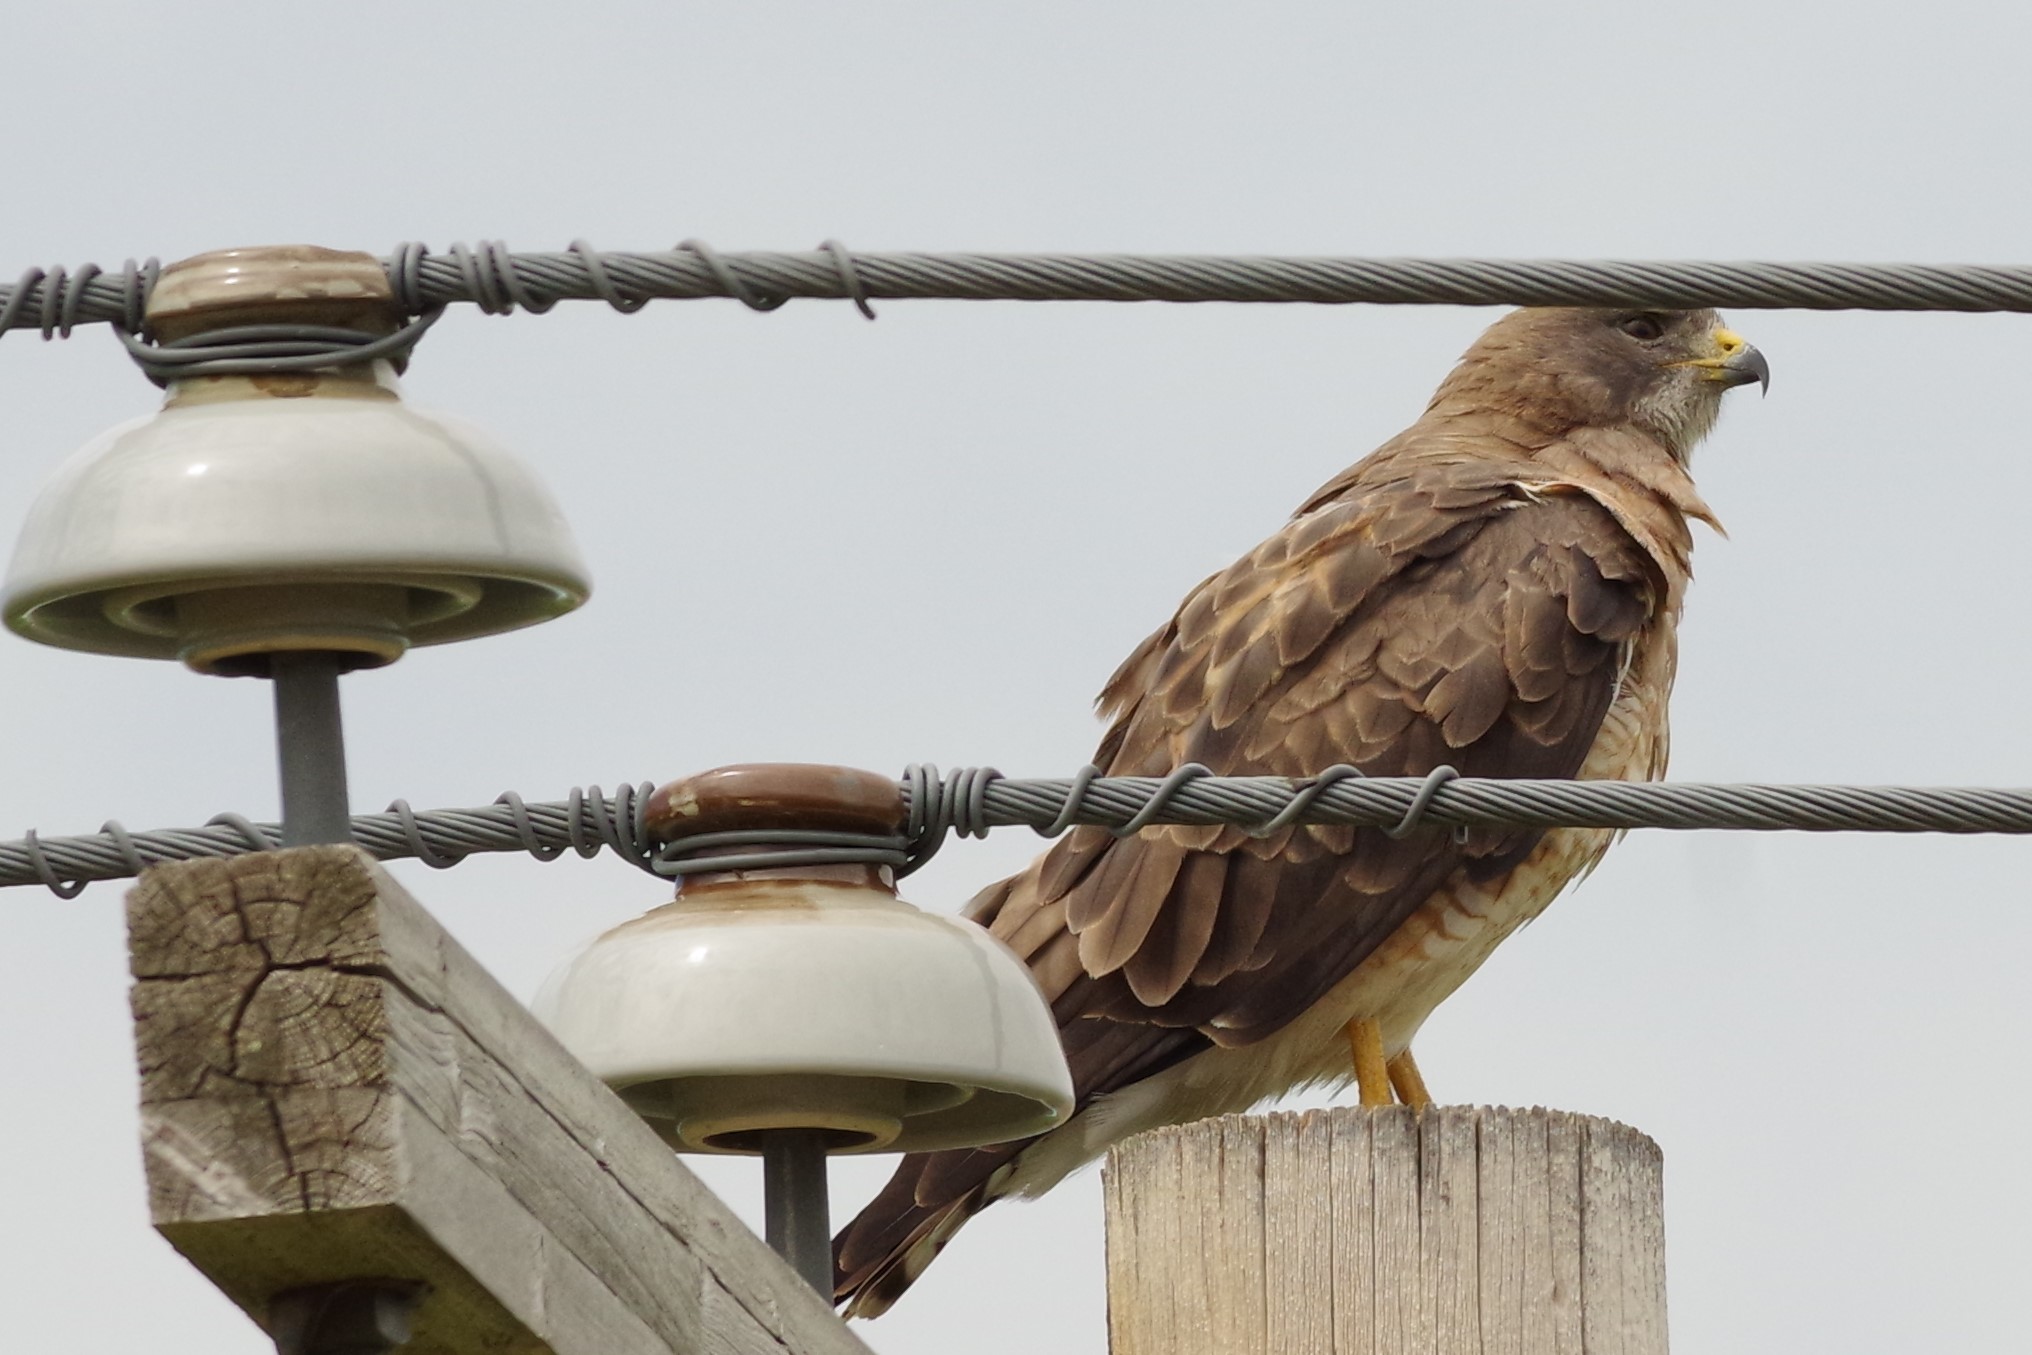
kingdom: Animalia
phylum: Chordata
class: Aves
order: Accipitriformes
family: Accipitridae
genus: Buteo
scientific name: Buteo swainsoni
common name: Swainson's hawk
